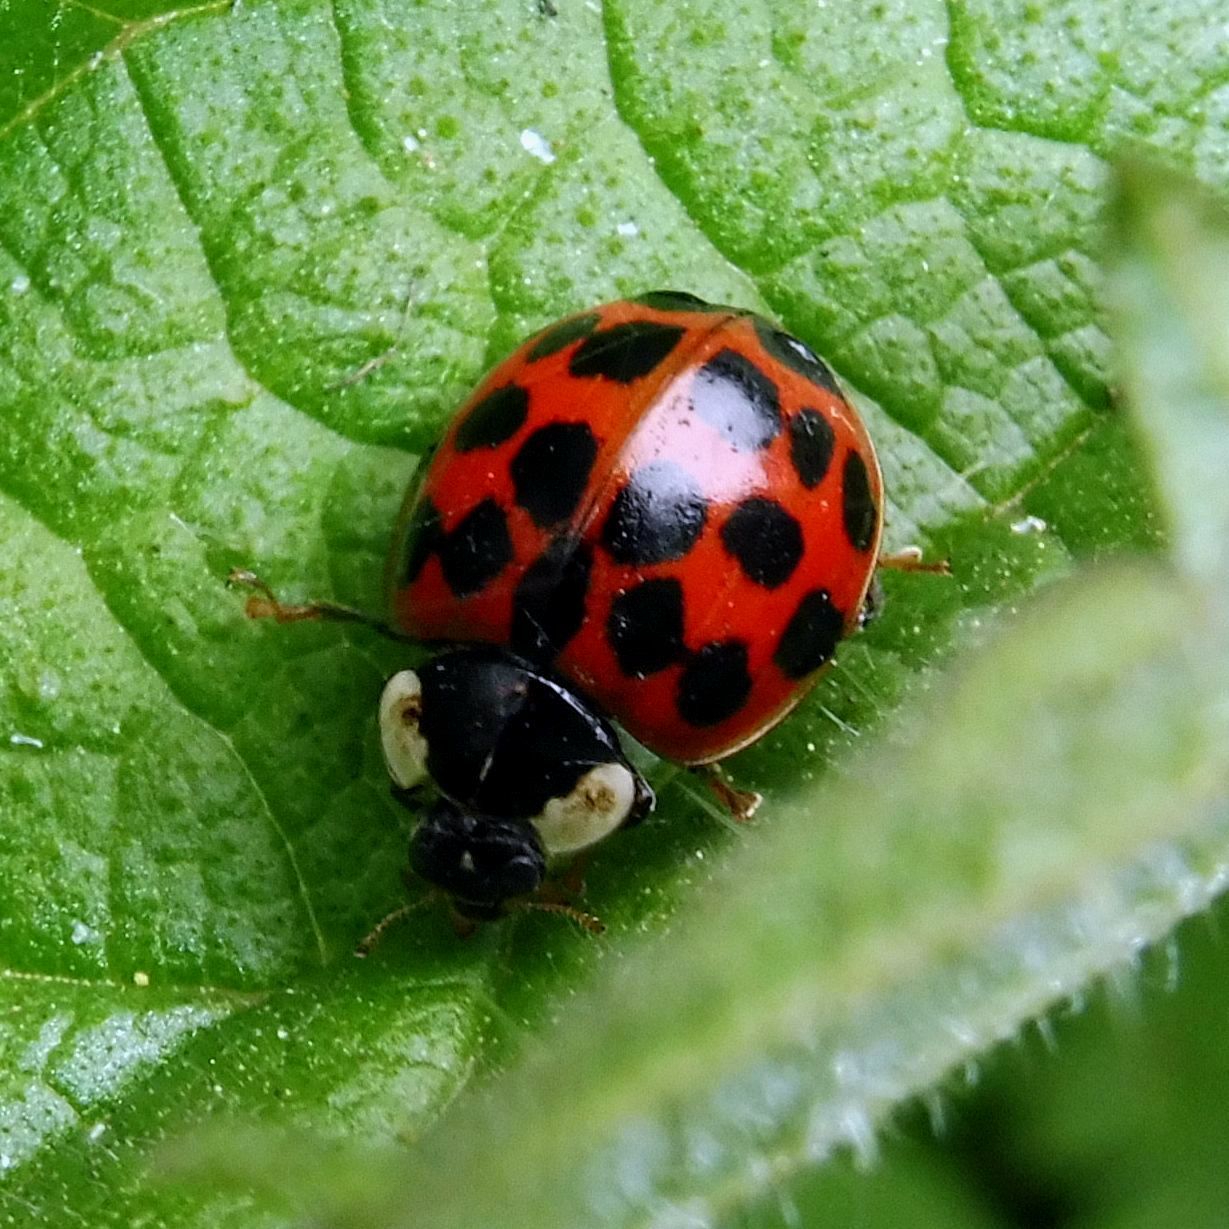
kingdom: Animalia
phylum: Arthropoda
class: Insecta
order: Coleoptera
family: Coccinellidae
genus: Harmonia
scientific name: Harmonia axyridis
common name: Harlequin ladybird
